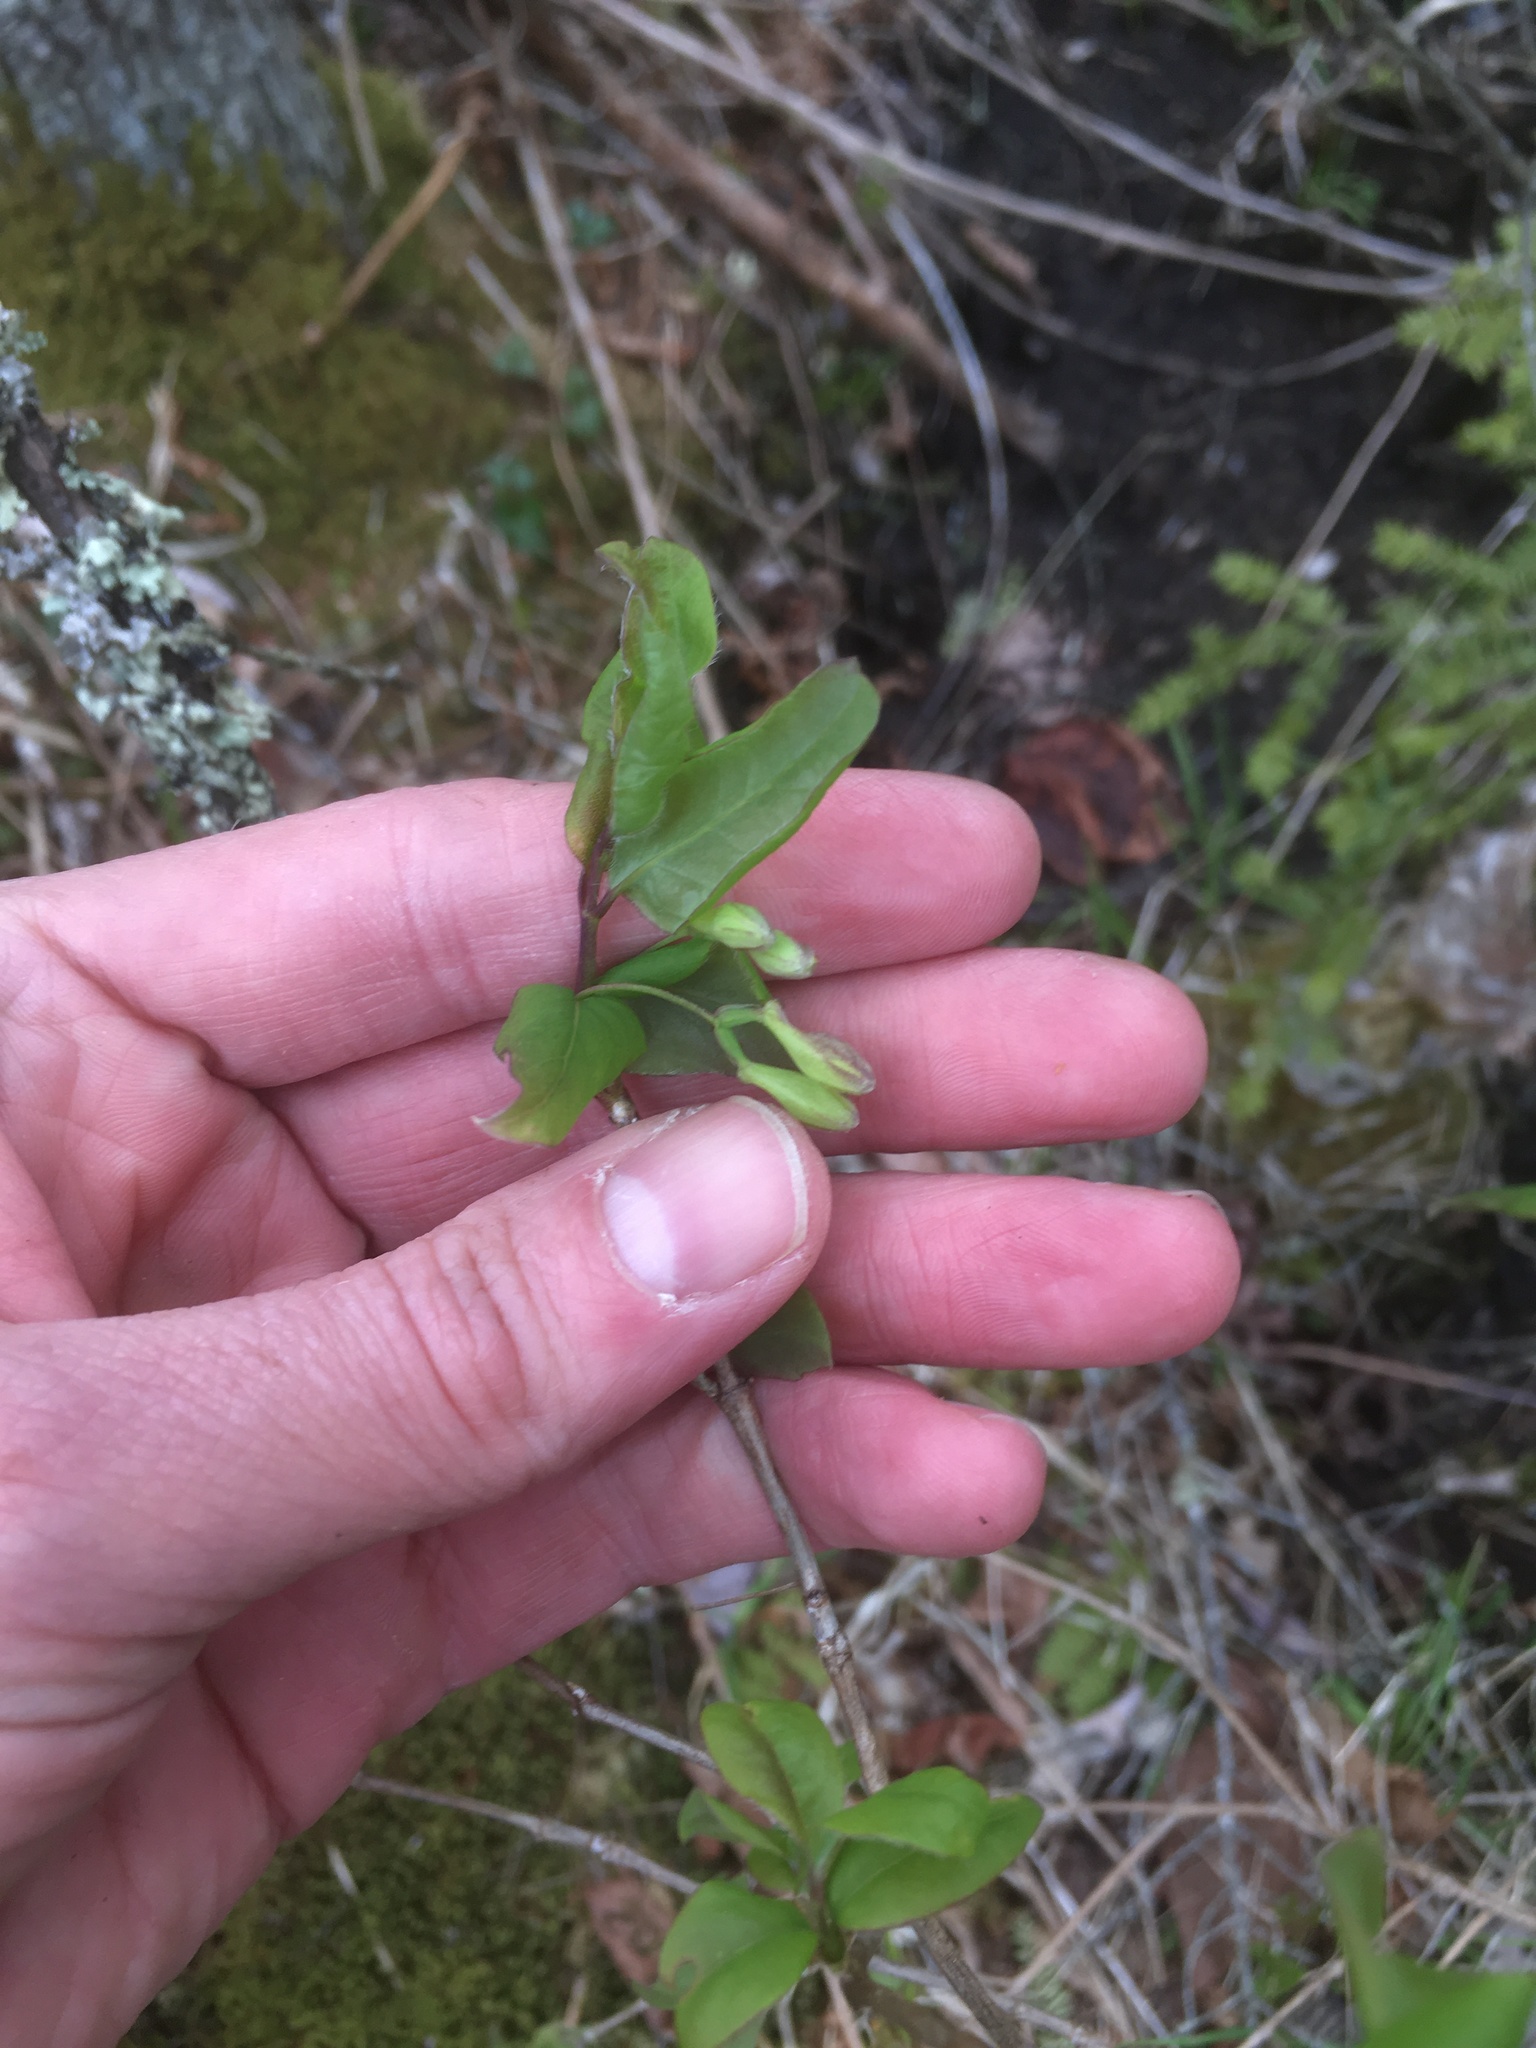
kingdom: Plantae
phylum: Tracheophyta
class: Magnoliopsida
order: Dipsacales
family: Caprifoliaceae
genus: Lonicera
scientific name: Lonicera canadensis
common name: American fly-honeysuckle
